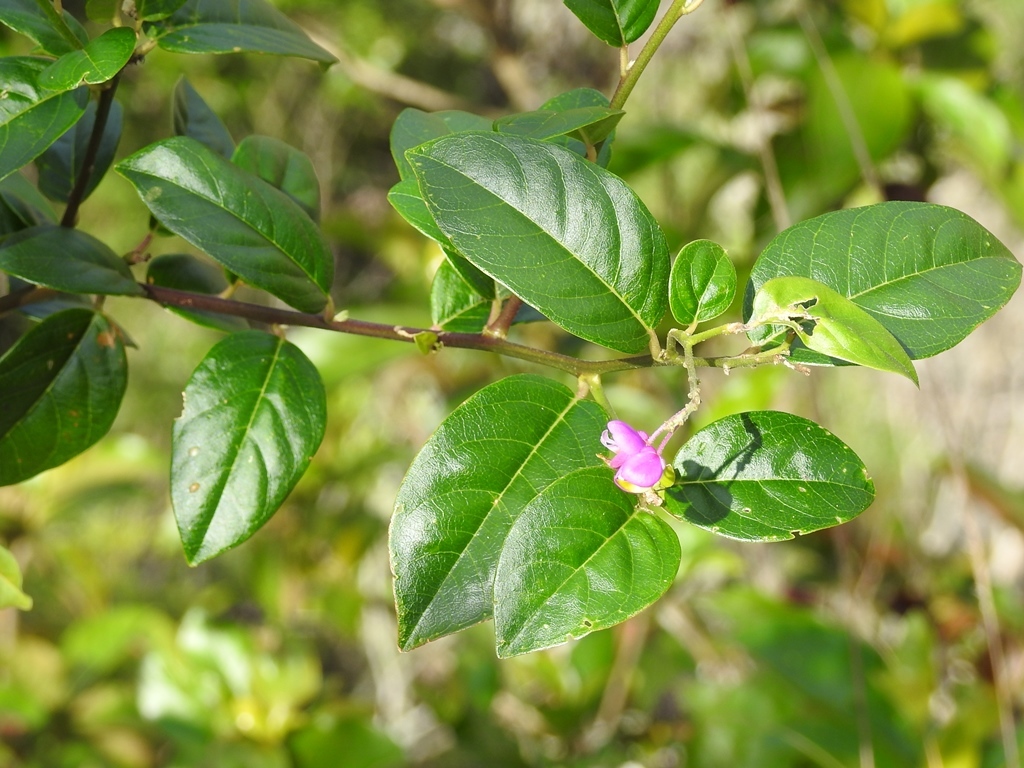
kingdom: Plantae
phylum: Tracheophyta
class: Magnoliopsida
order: Fabales
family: Polygalaceae
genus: Securidaca
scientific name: Securidaca diversifolia
